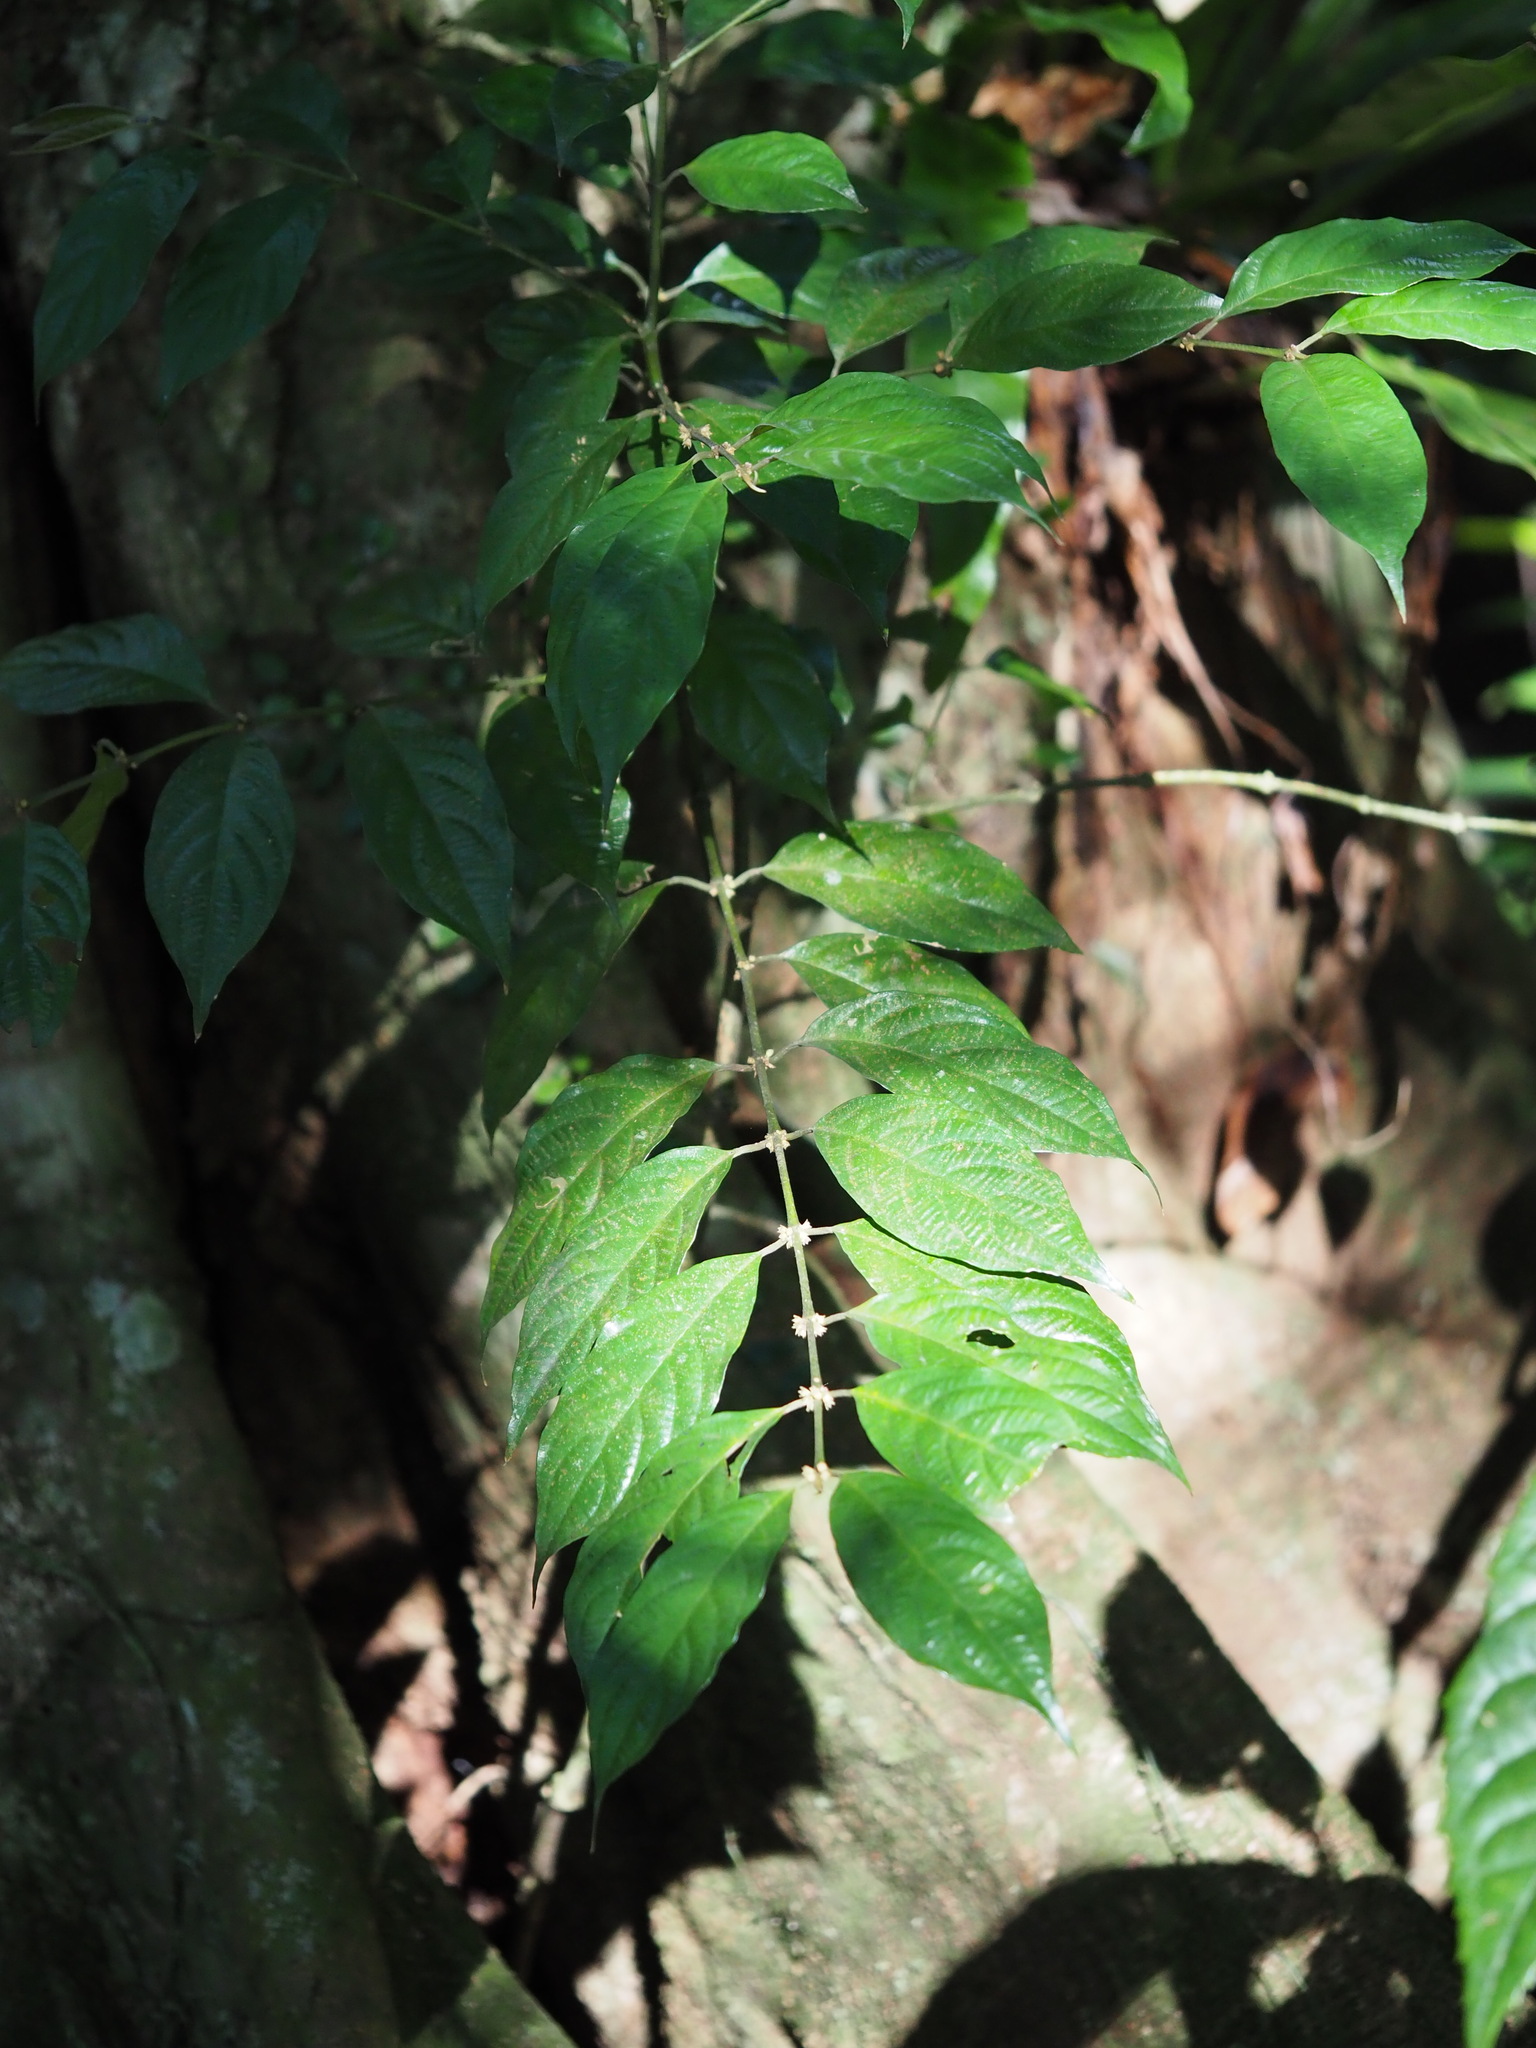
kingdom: Plantae
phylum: Tracheophyta
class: Magnoliopsida
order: Gentianales
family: Rubiaceae
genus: Lasianthus
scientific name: Lasianthus fordii
